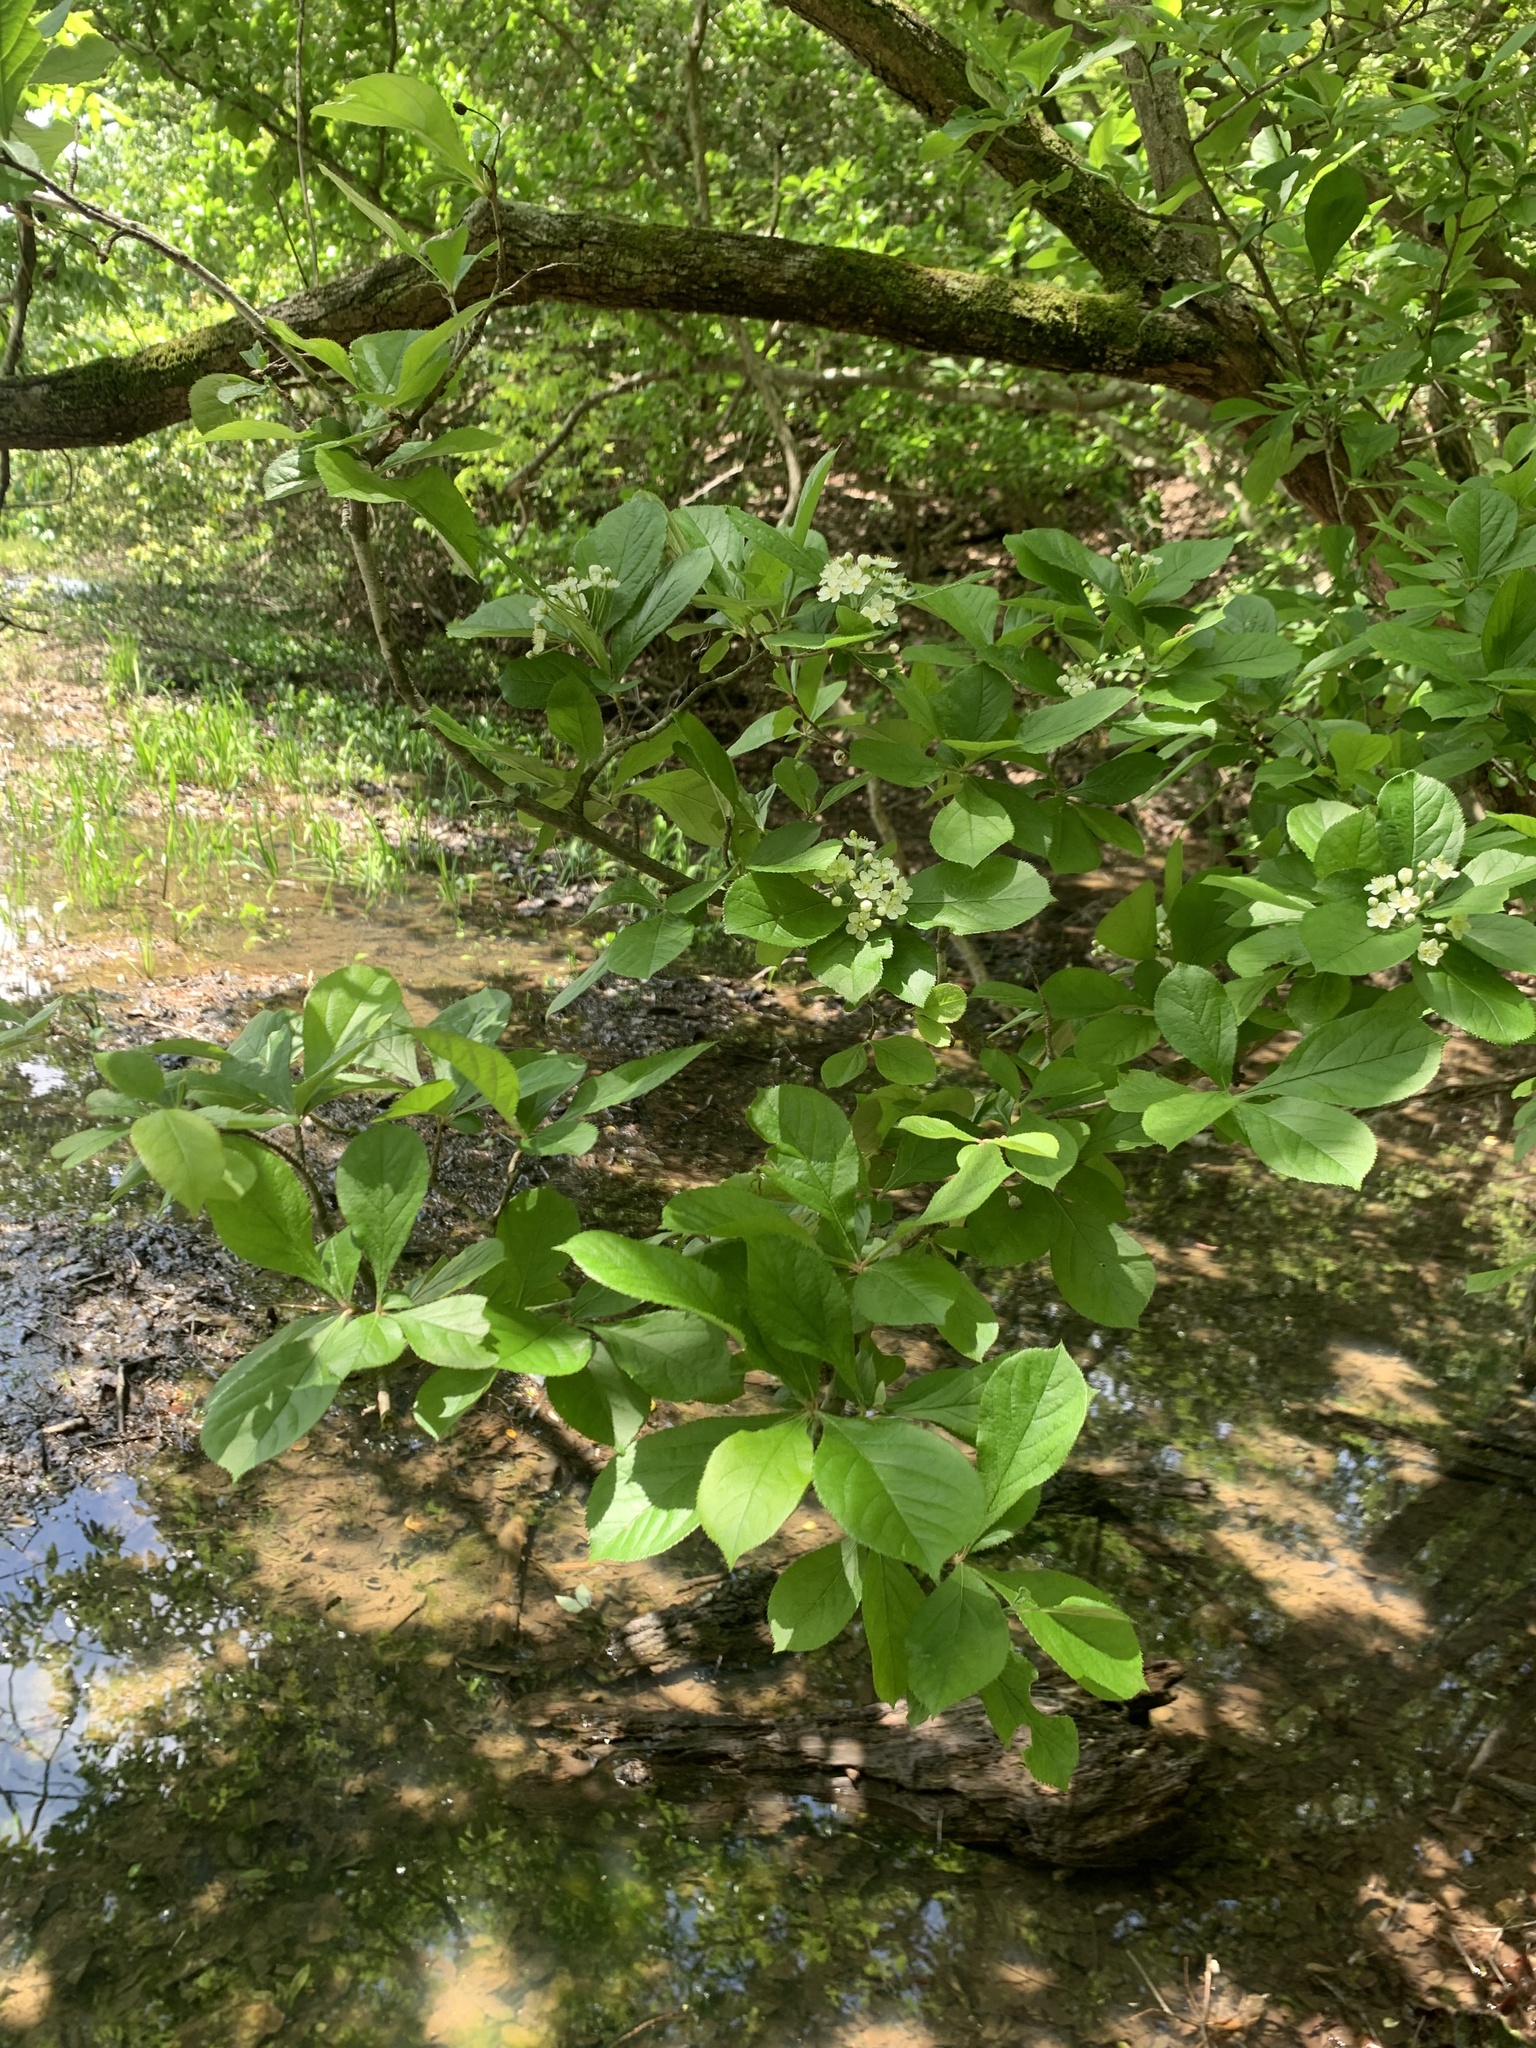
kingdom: Plantae
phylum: Tracheophyta
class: Magnoliopsida
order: Rosales
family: Rosaceae
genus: Pourthiaea
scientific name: Pourthiaea villosa
